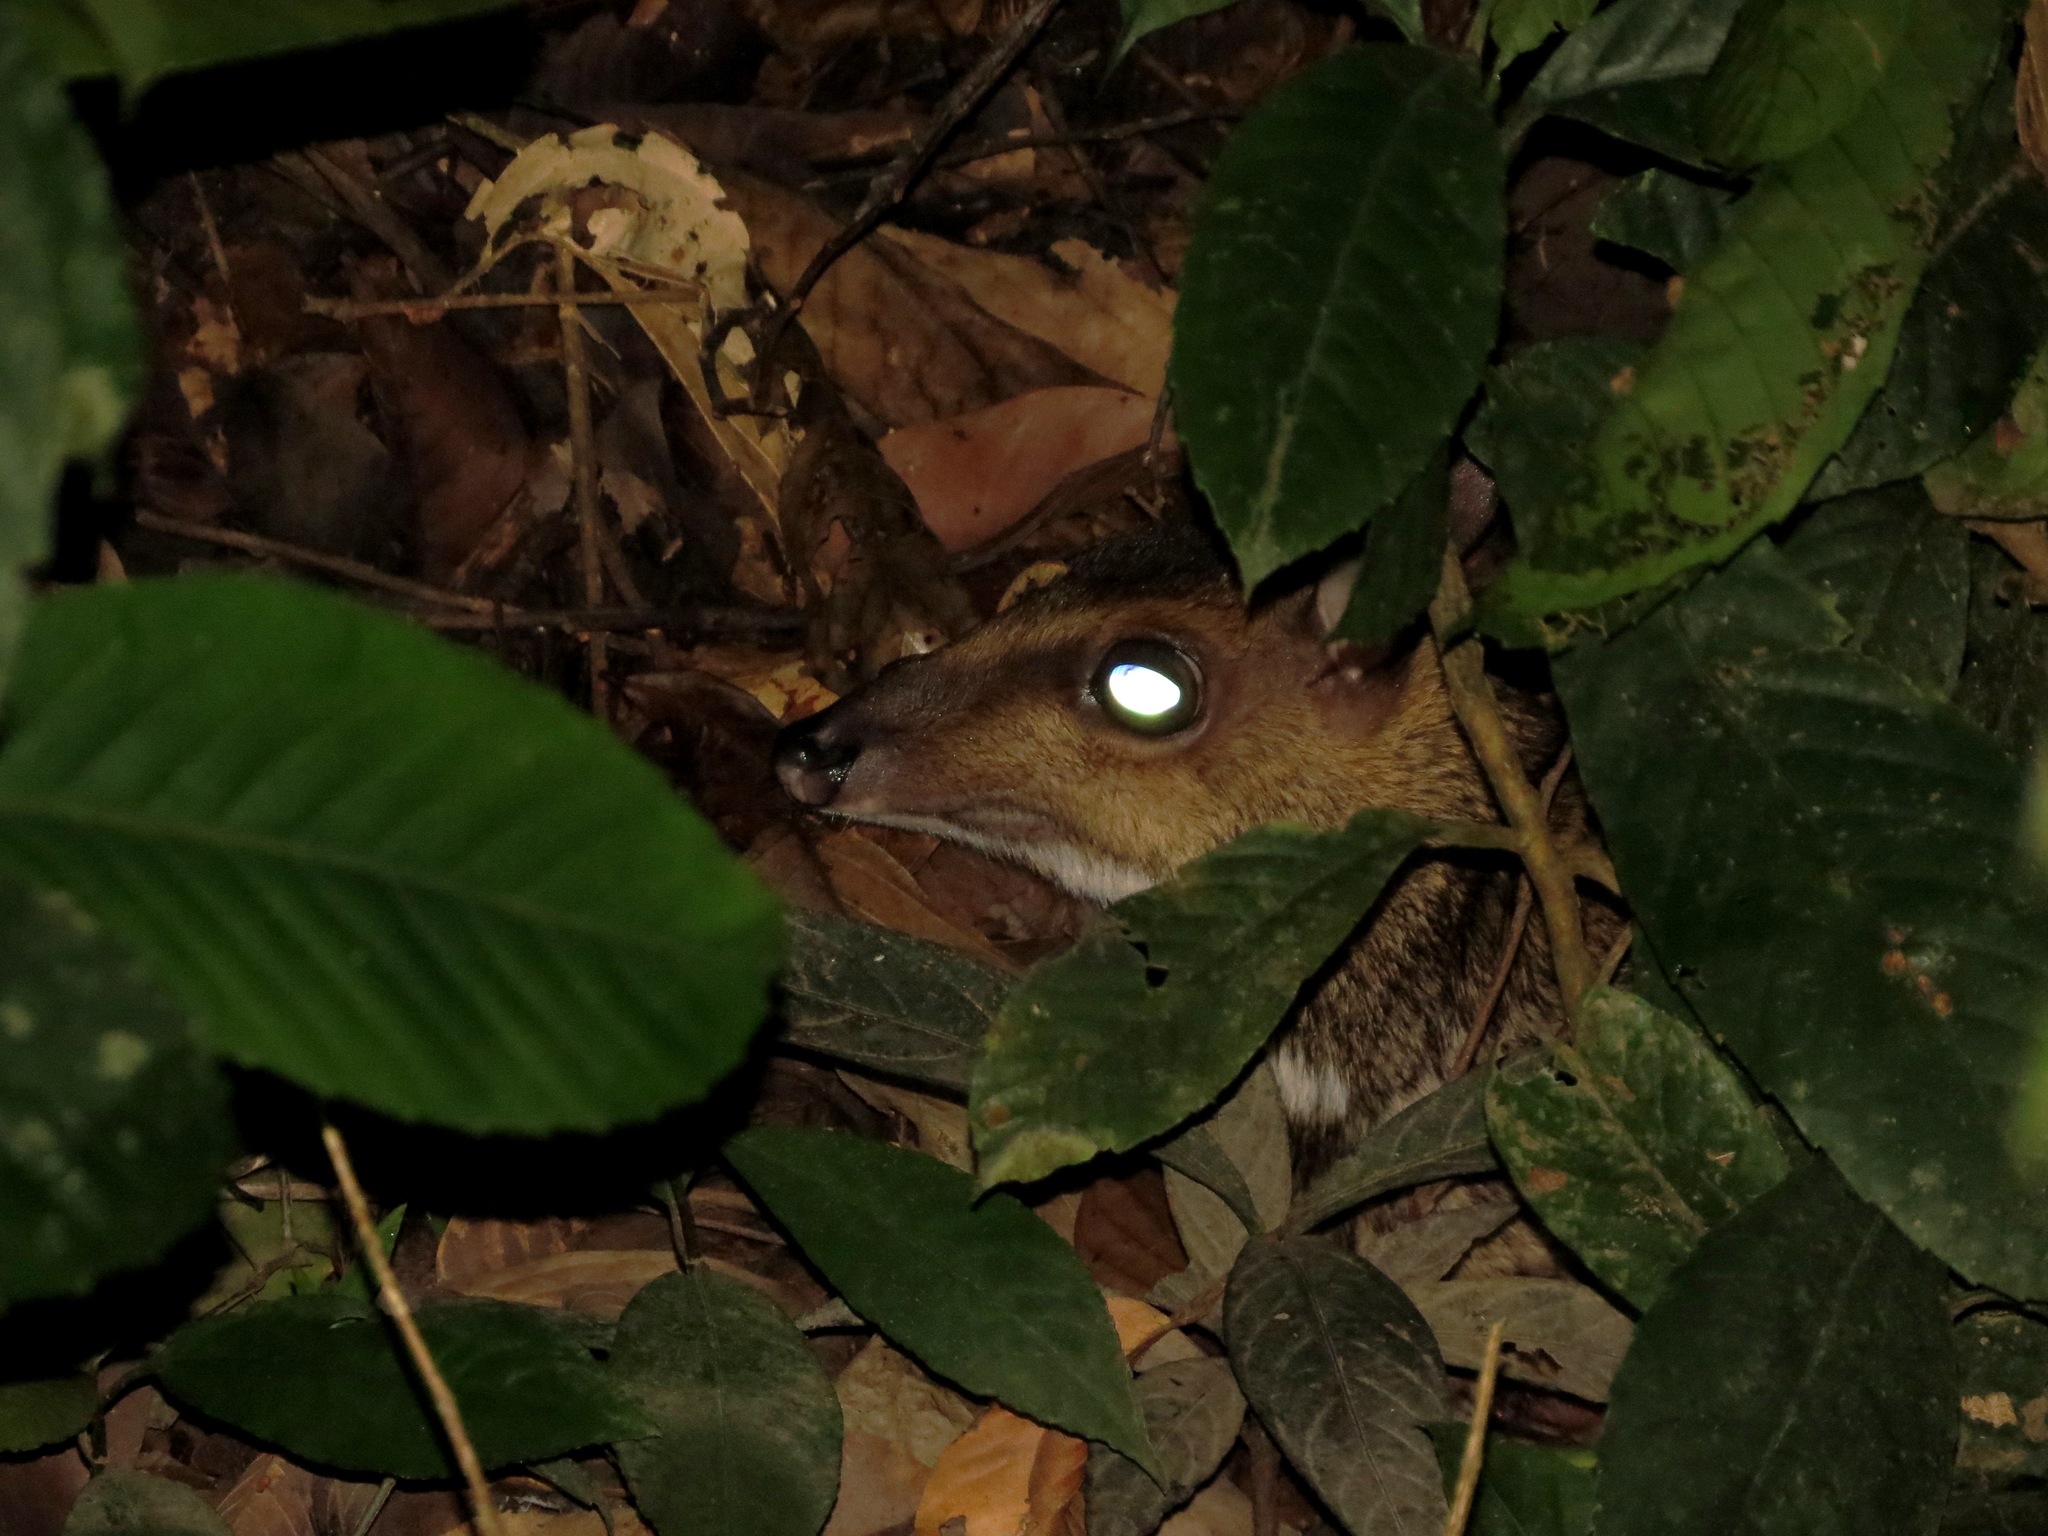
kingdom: Animalia
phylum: Chordata
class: Mammalia
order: Artiodactyla
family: Tragulidae
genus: Tragulus
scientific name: Tragulus napu
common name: Greater mouse-deer
